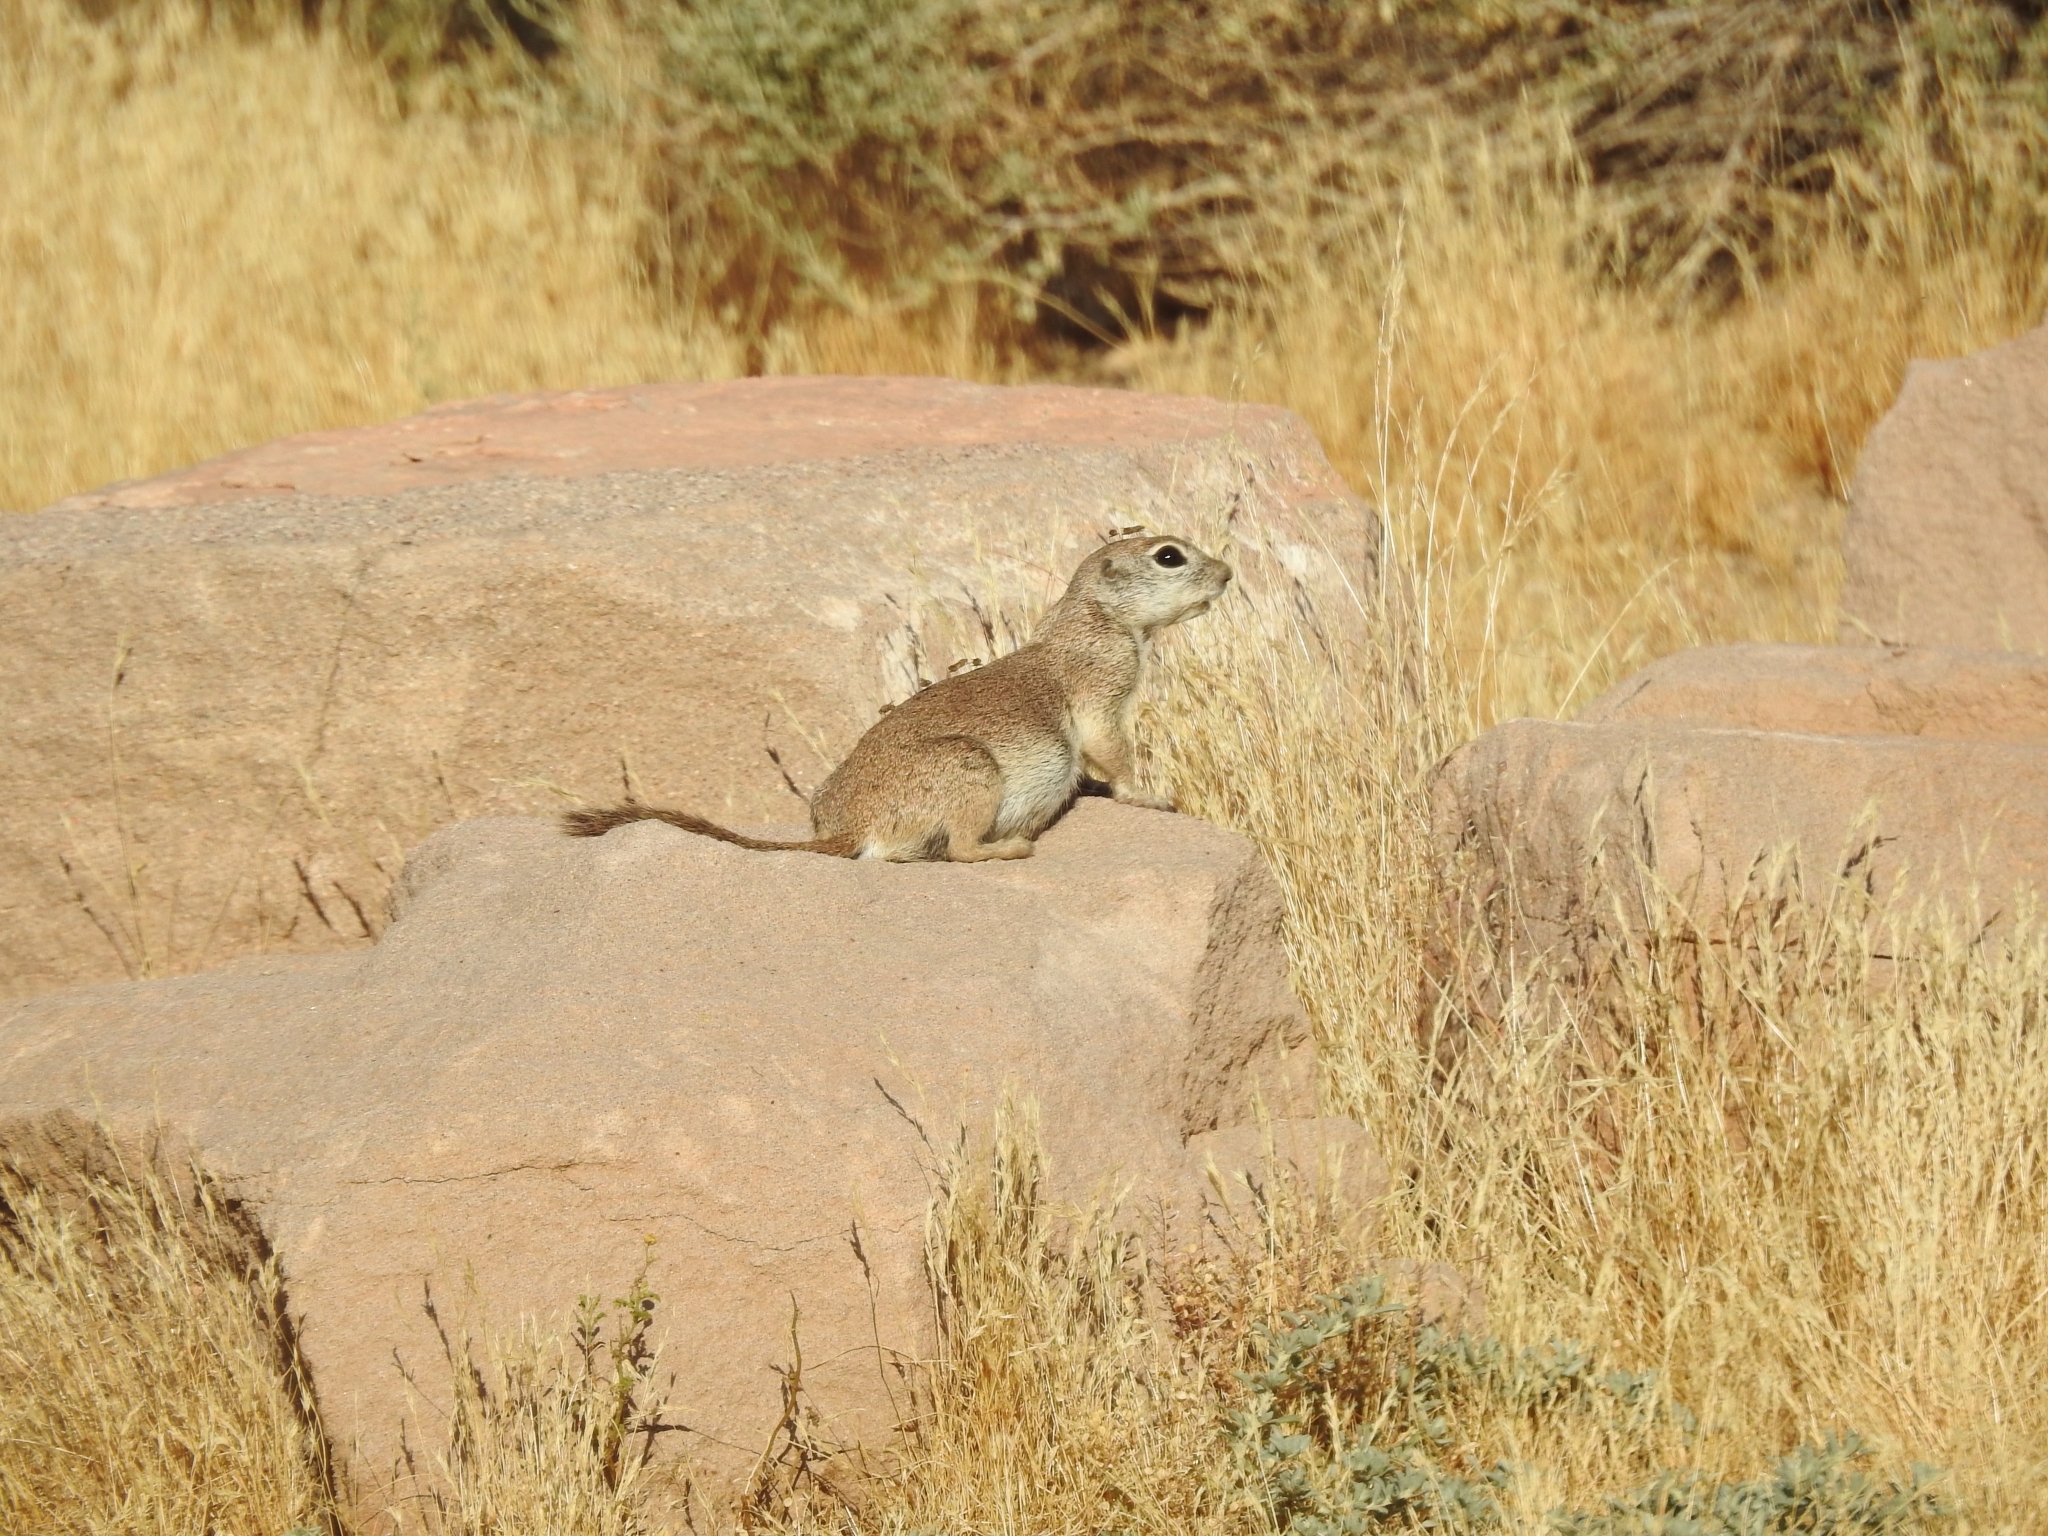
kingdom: Animalia
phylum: Chordata
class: Mammalia
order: Rodentia
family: Sciuridae
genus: Xerospermophilus
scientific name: Xerospermophilus tereticaudus
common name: Round-tailed ground squirrel
